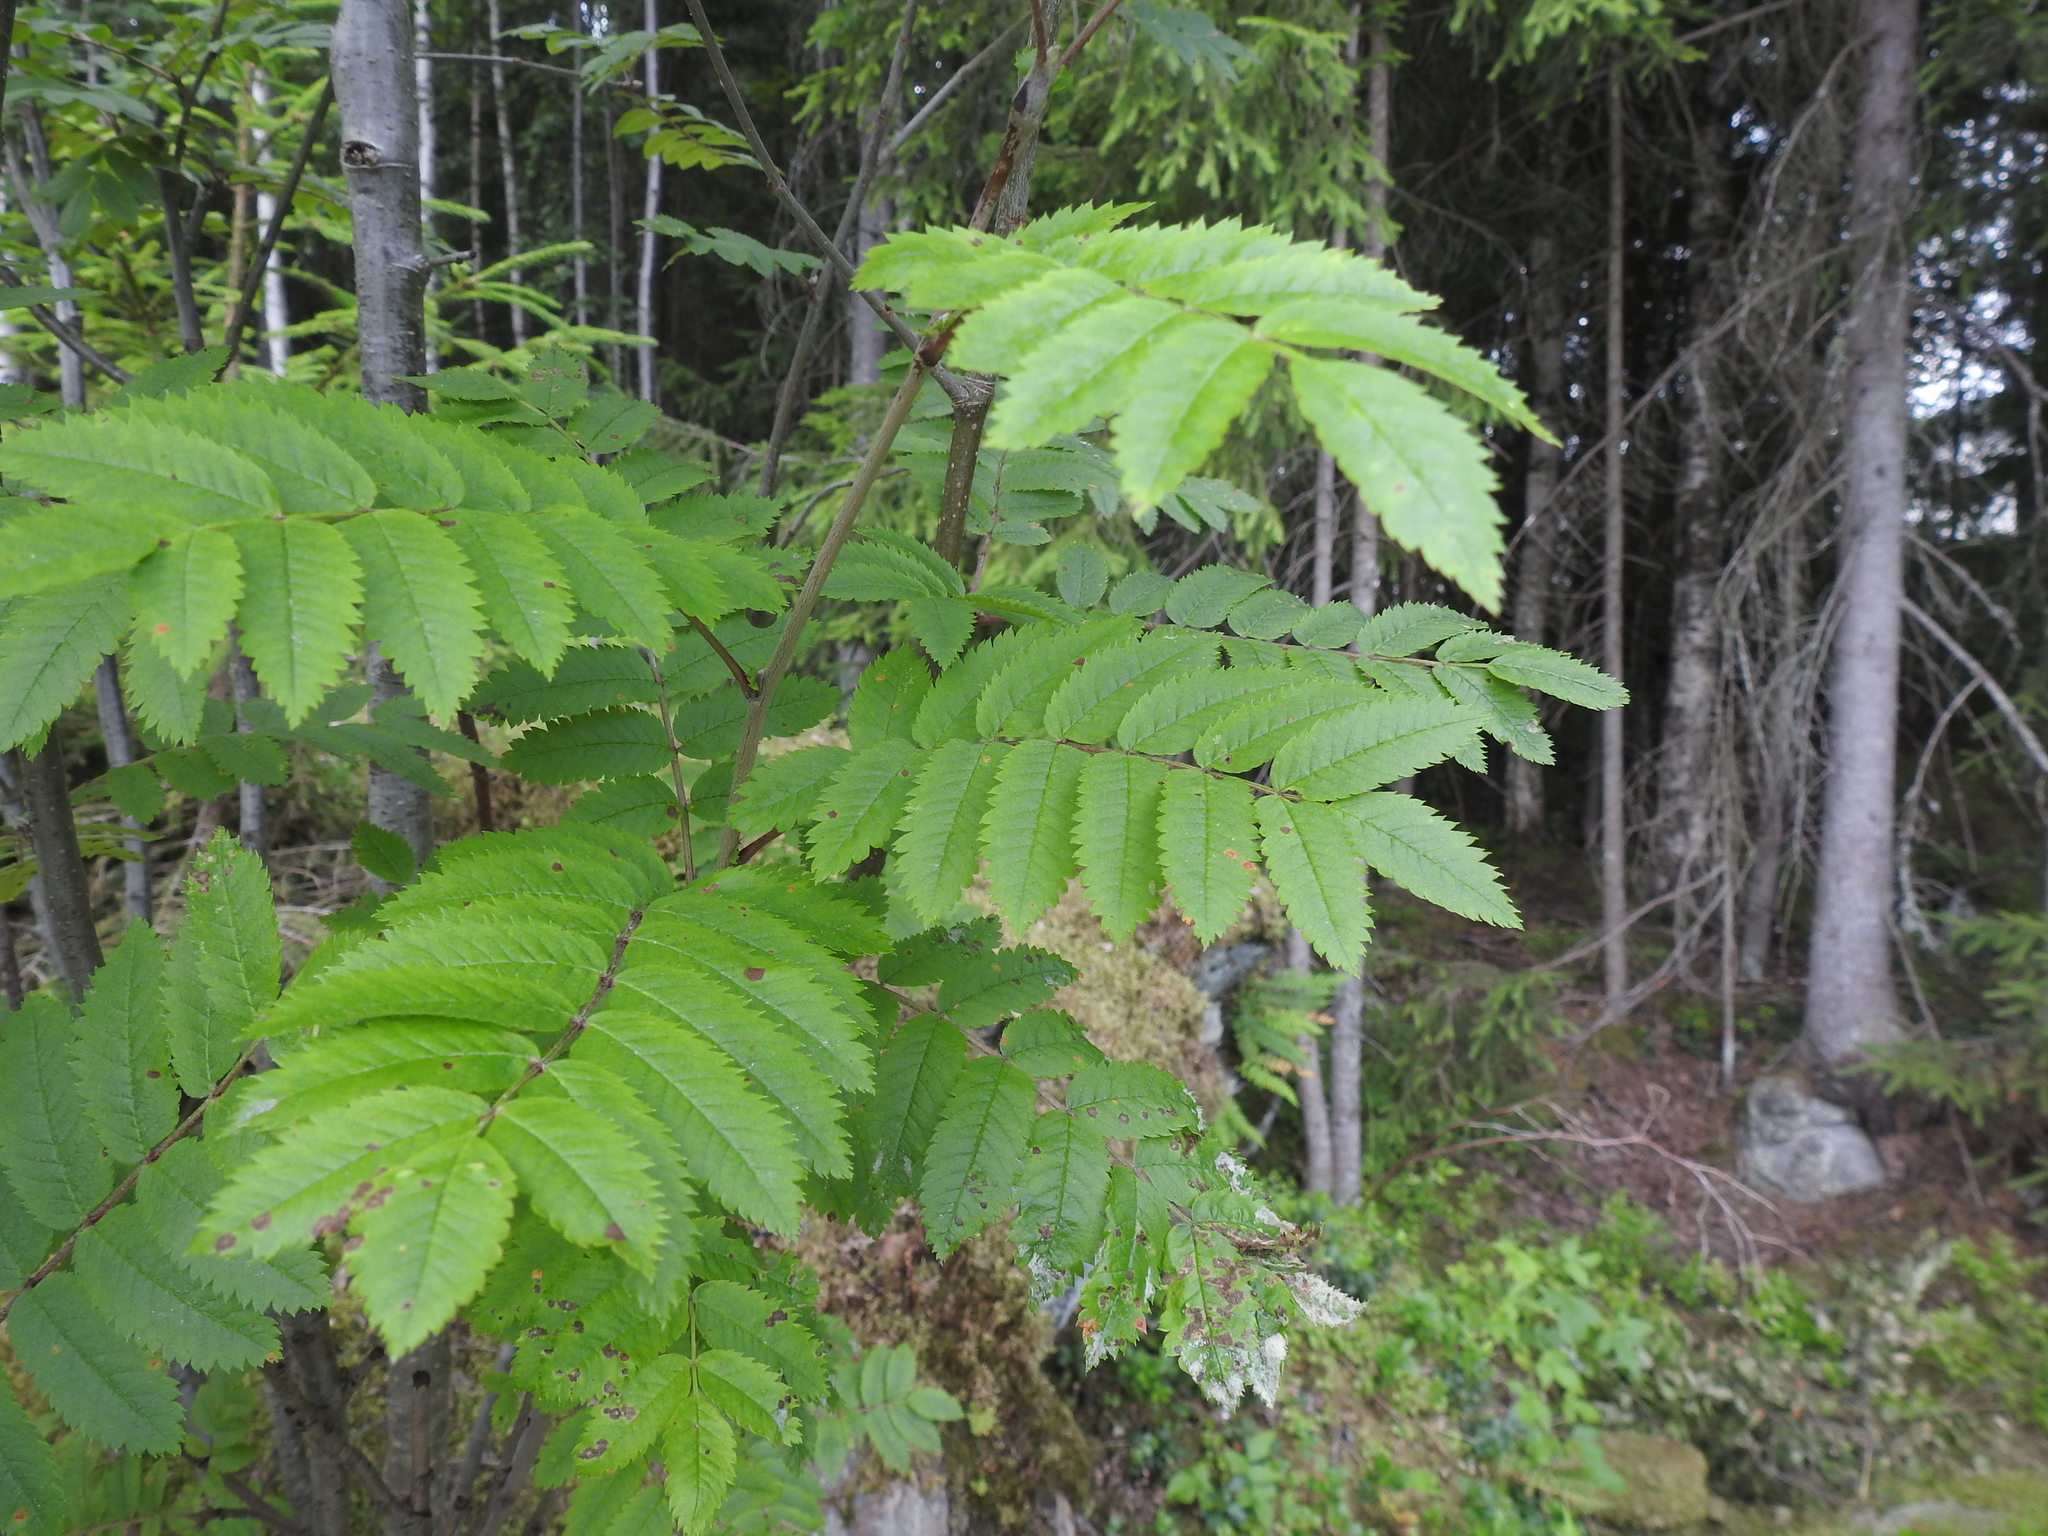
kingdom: Plantae
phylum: Tracheophyta
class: Magnoliopsida
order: Rosales
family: Rosaceae
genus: Sorbus
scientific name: Sorbus aucuparia
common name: Rowan
